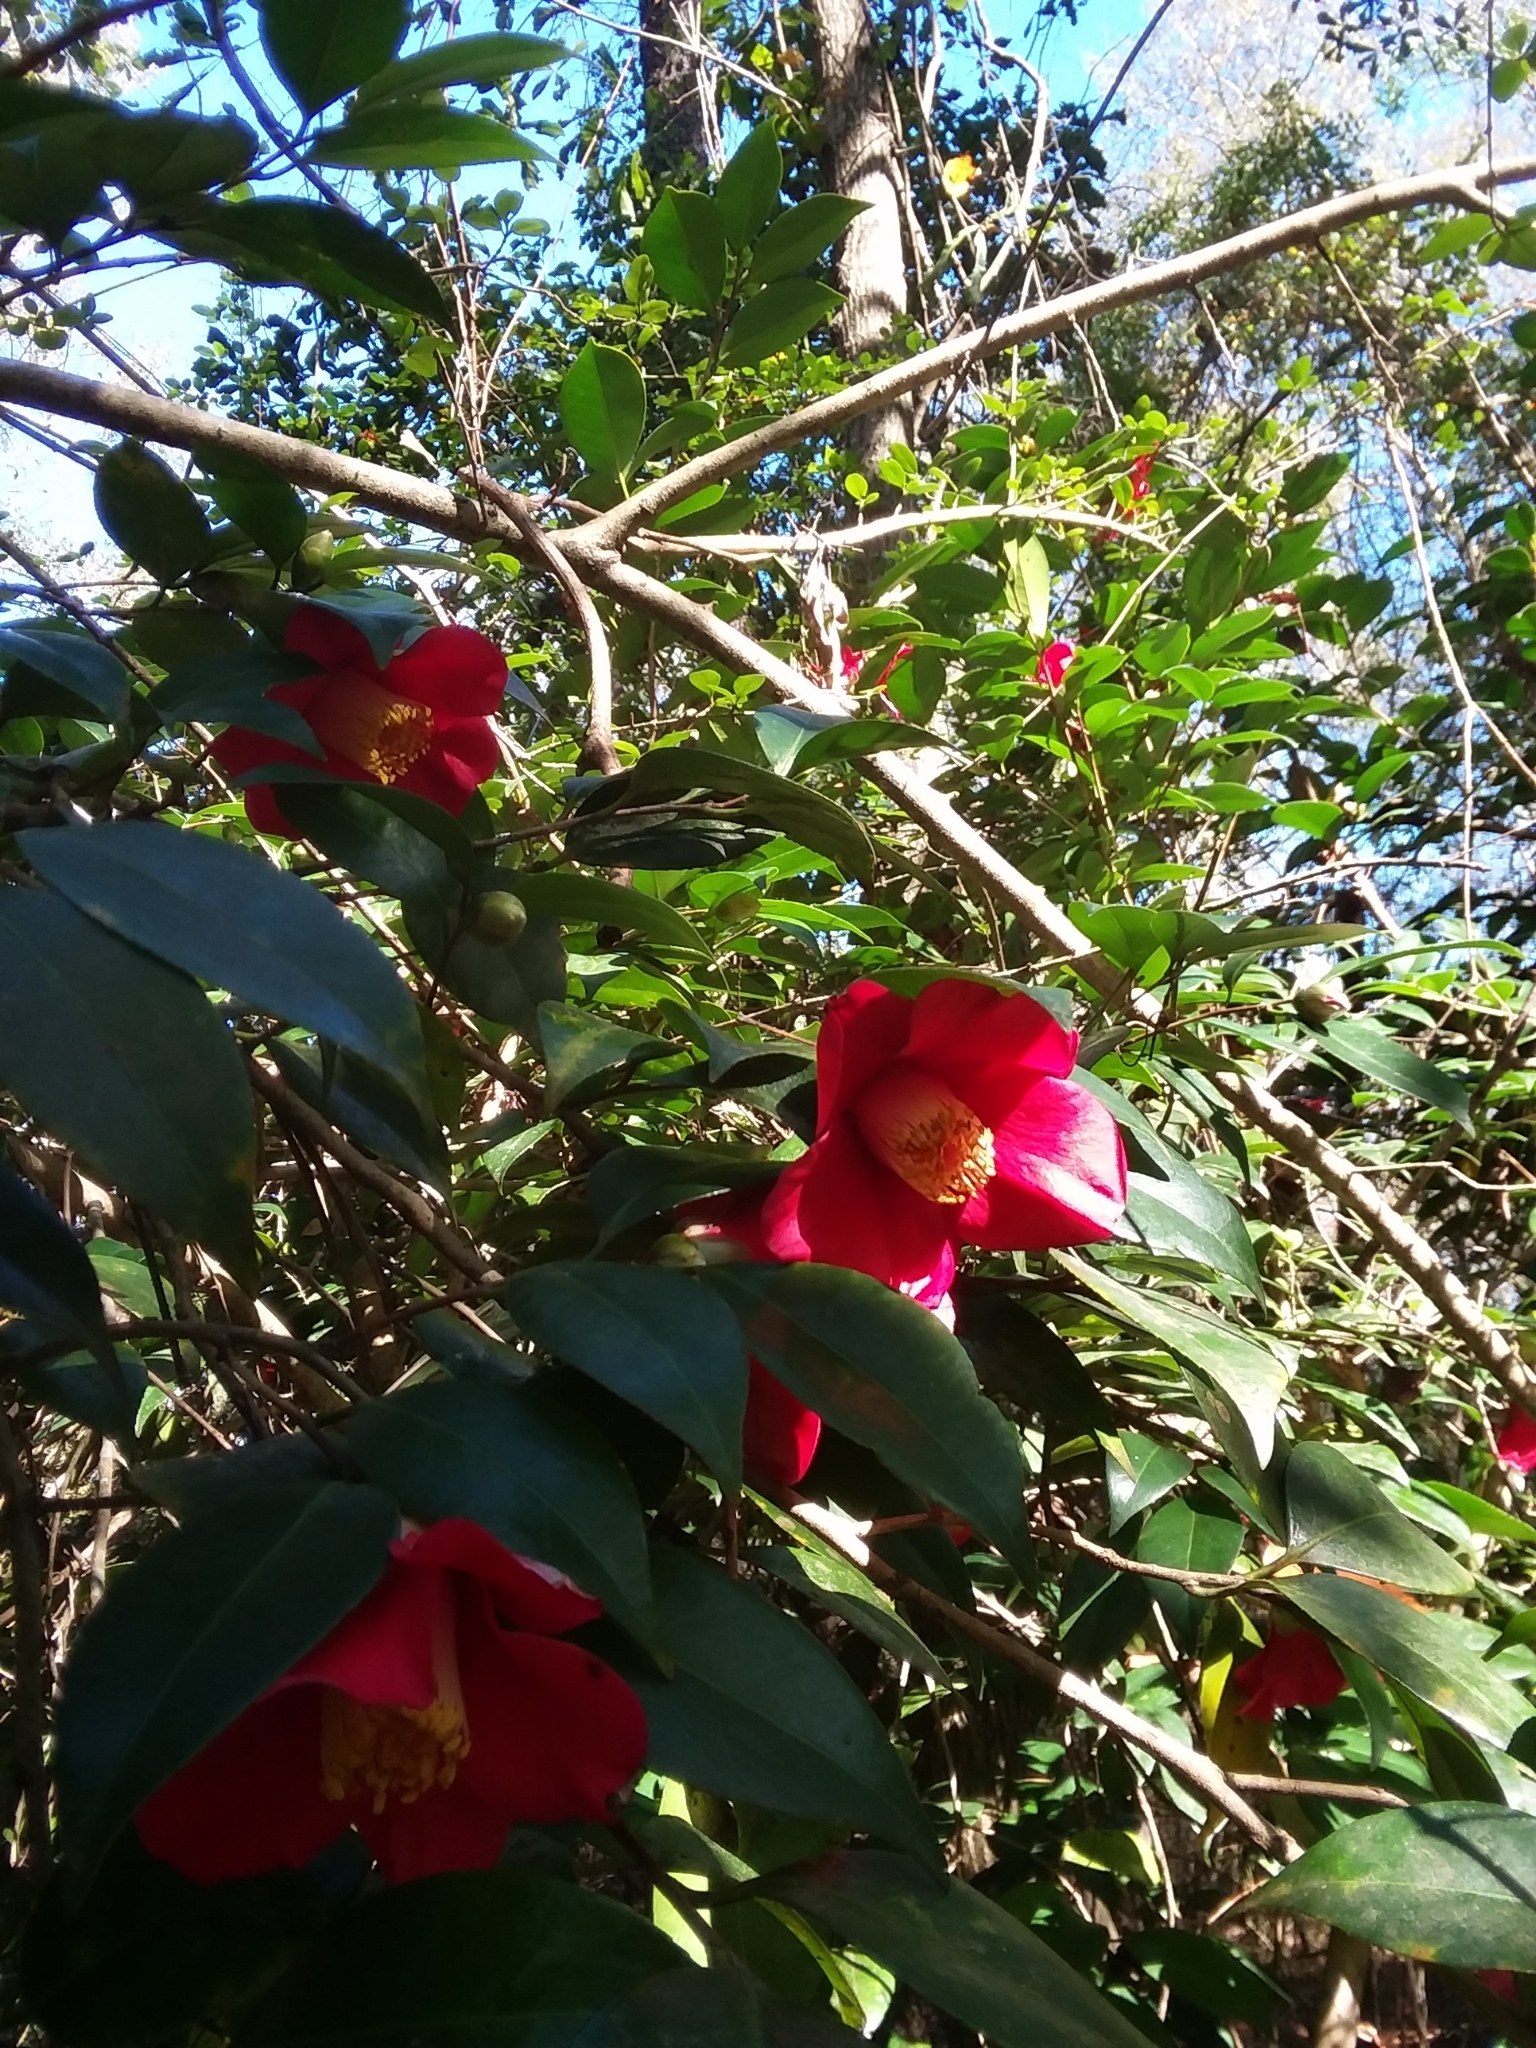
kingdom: Plantae
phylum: Tracheophyta
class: Magnoliopsida
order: Ericales
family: Theaceae
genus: Camellia
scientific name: Camellia japonica
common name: Camellia
